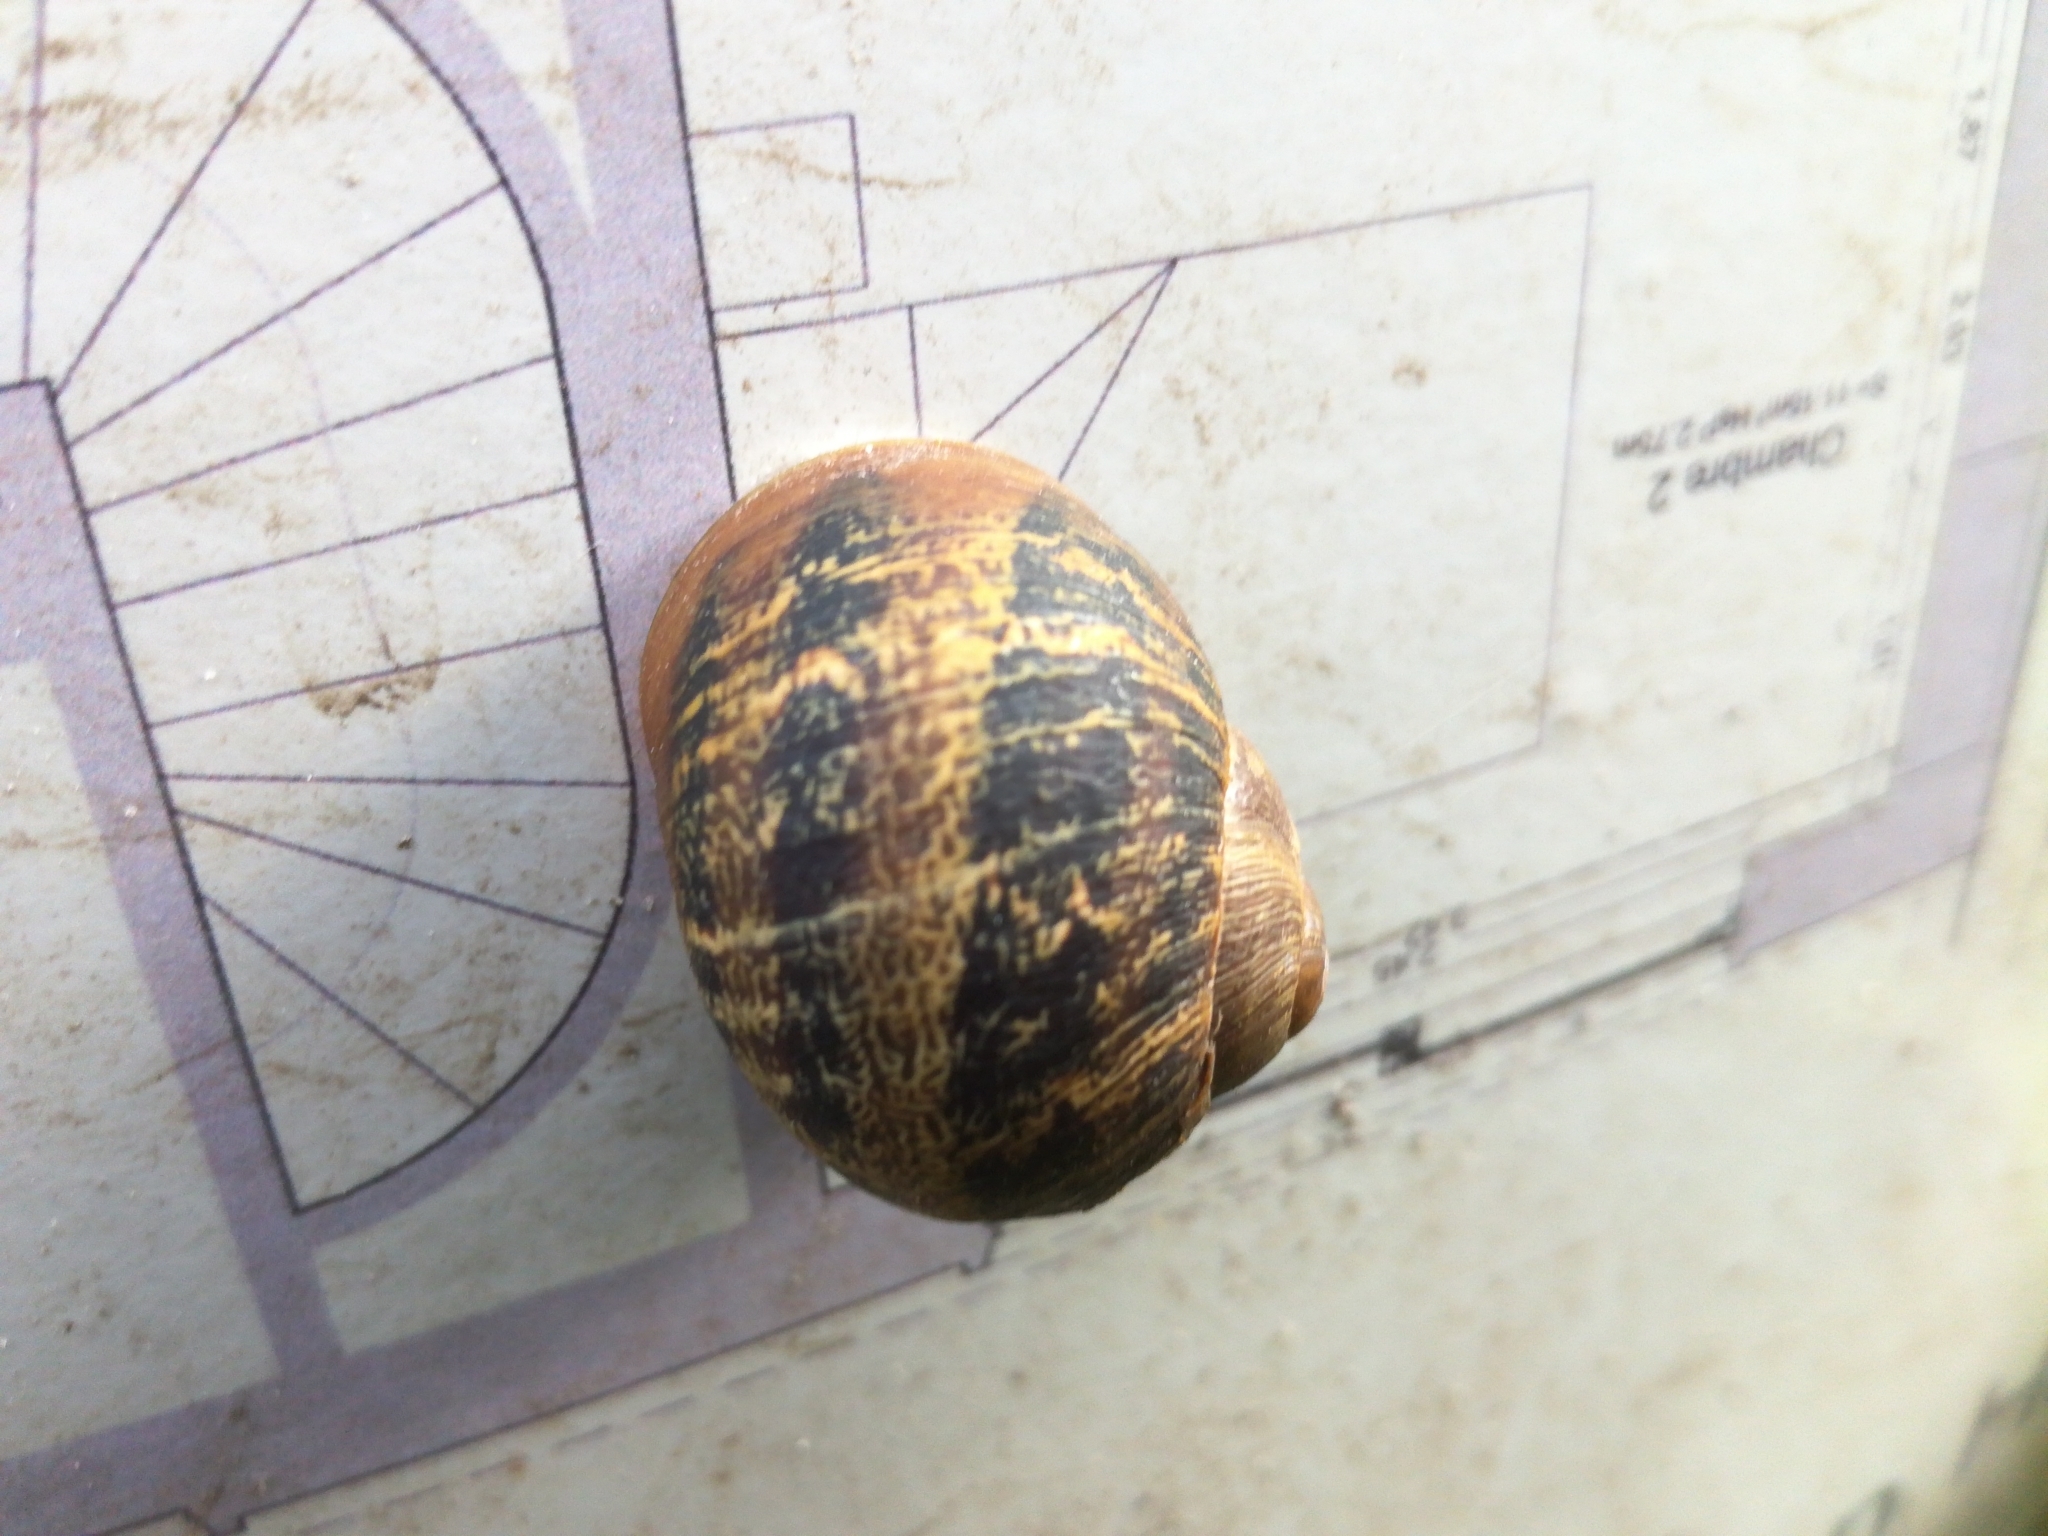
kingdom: Animalia
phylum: Mollusca
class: Gastropoda
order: Stylommatophora
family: Helicidae
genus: Cornu
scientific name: Cornu aspersum
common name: Brown garden snail
